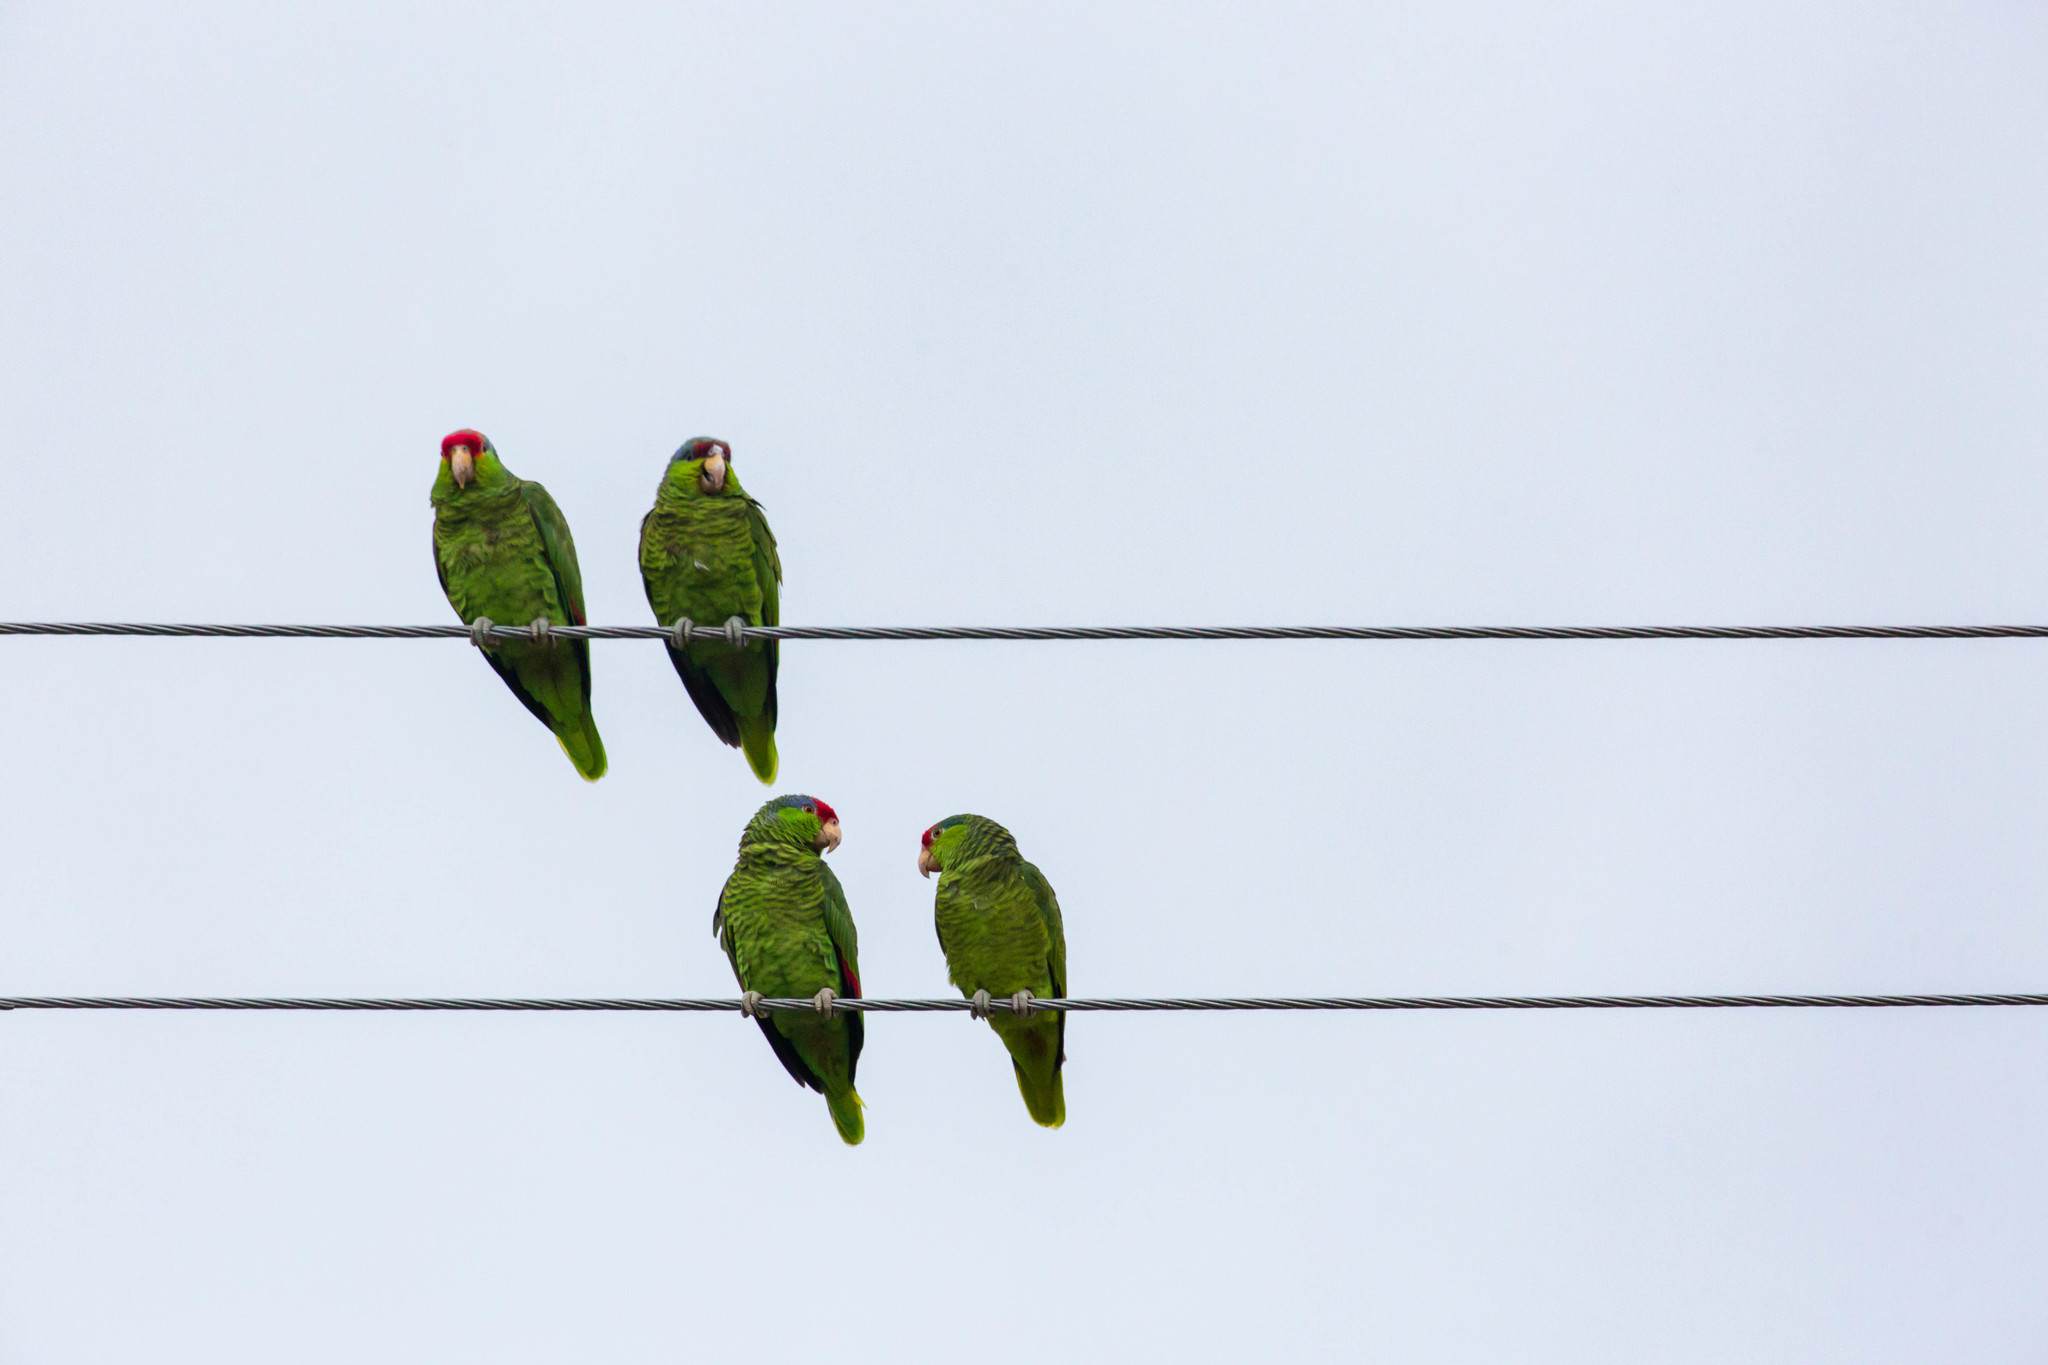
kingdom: Animalia
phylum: Chordata
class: Aves
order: Psittaciformes
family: Psittacidae
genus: Amazona
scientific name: Amazona viridigenalis
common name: Red-crowned amazon
